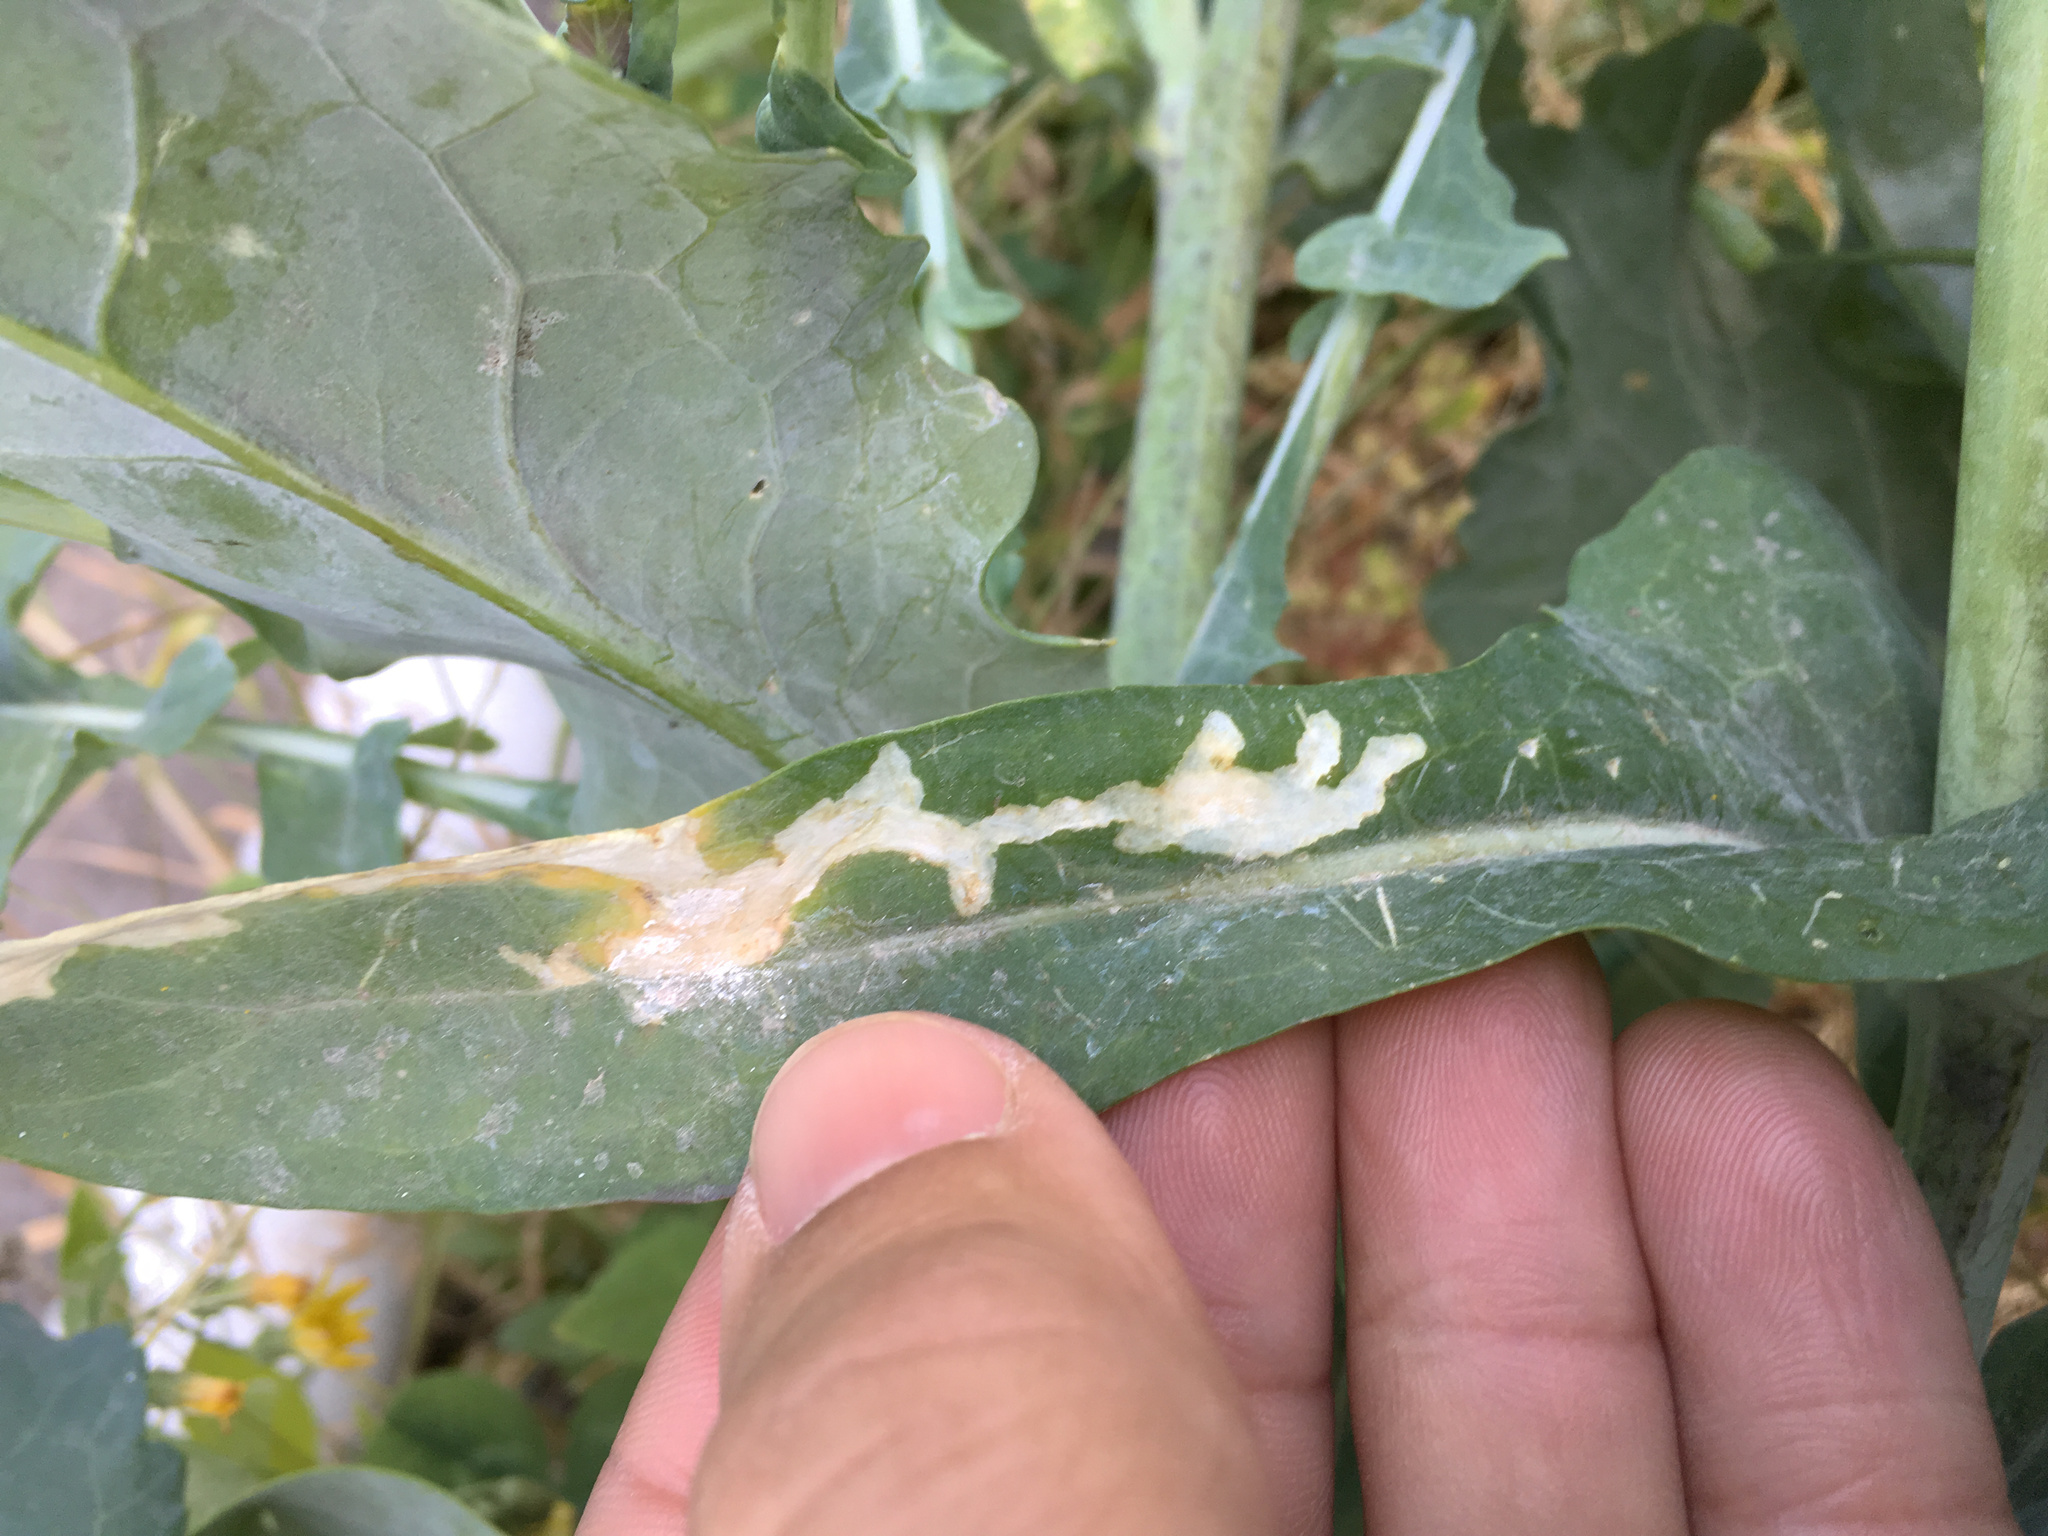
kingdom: Animalia
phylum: Arthropoda
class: Insecta
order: Diptera
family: Drosophilidae
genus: Scaptomyza
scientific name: Scaptomyza flava
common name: Fruit fly
